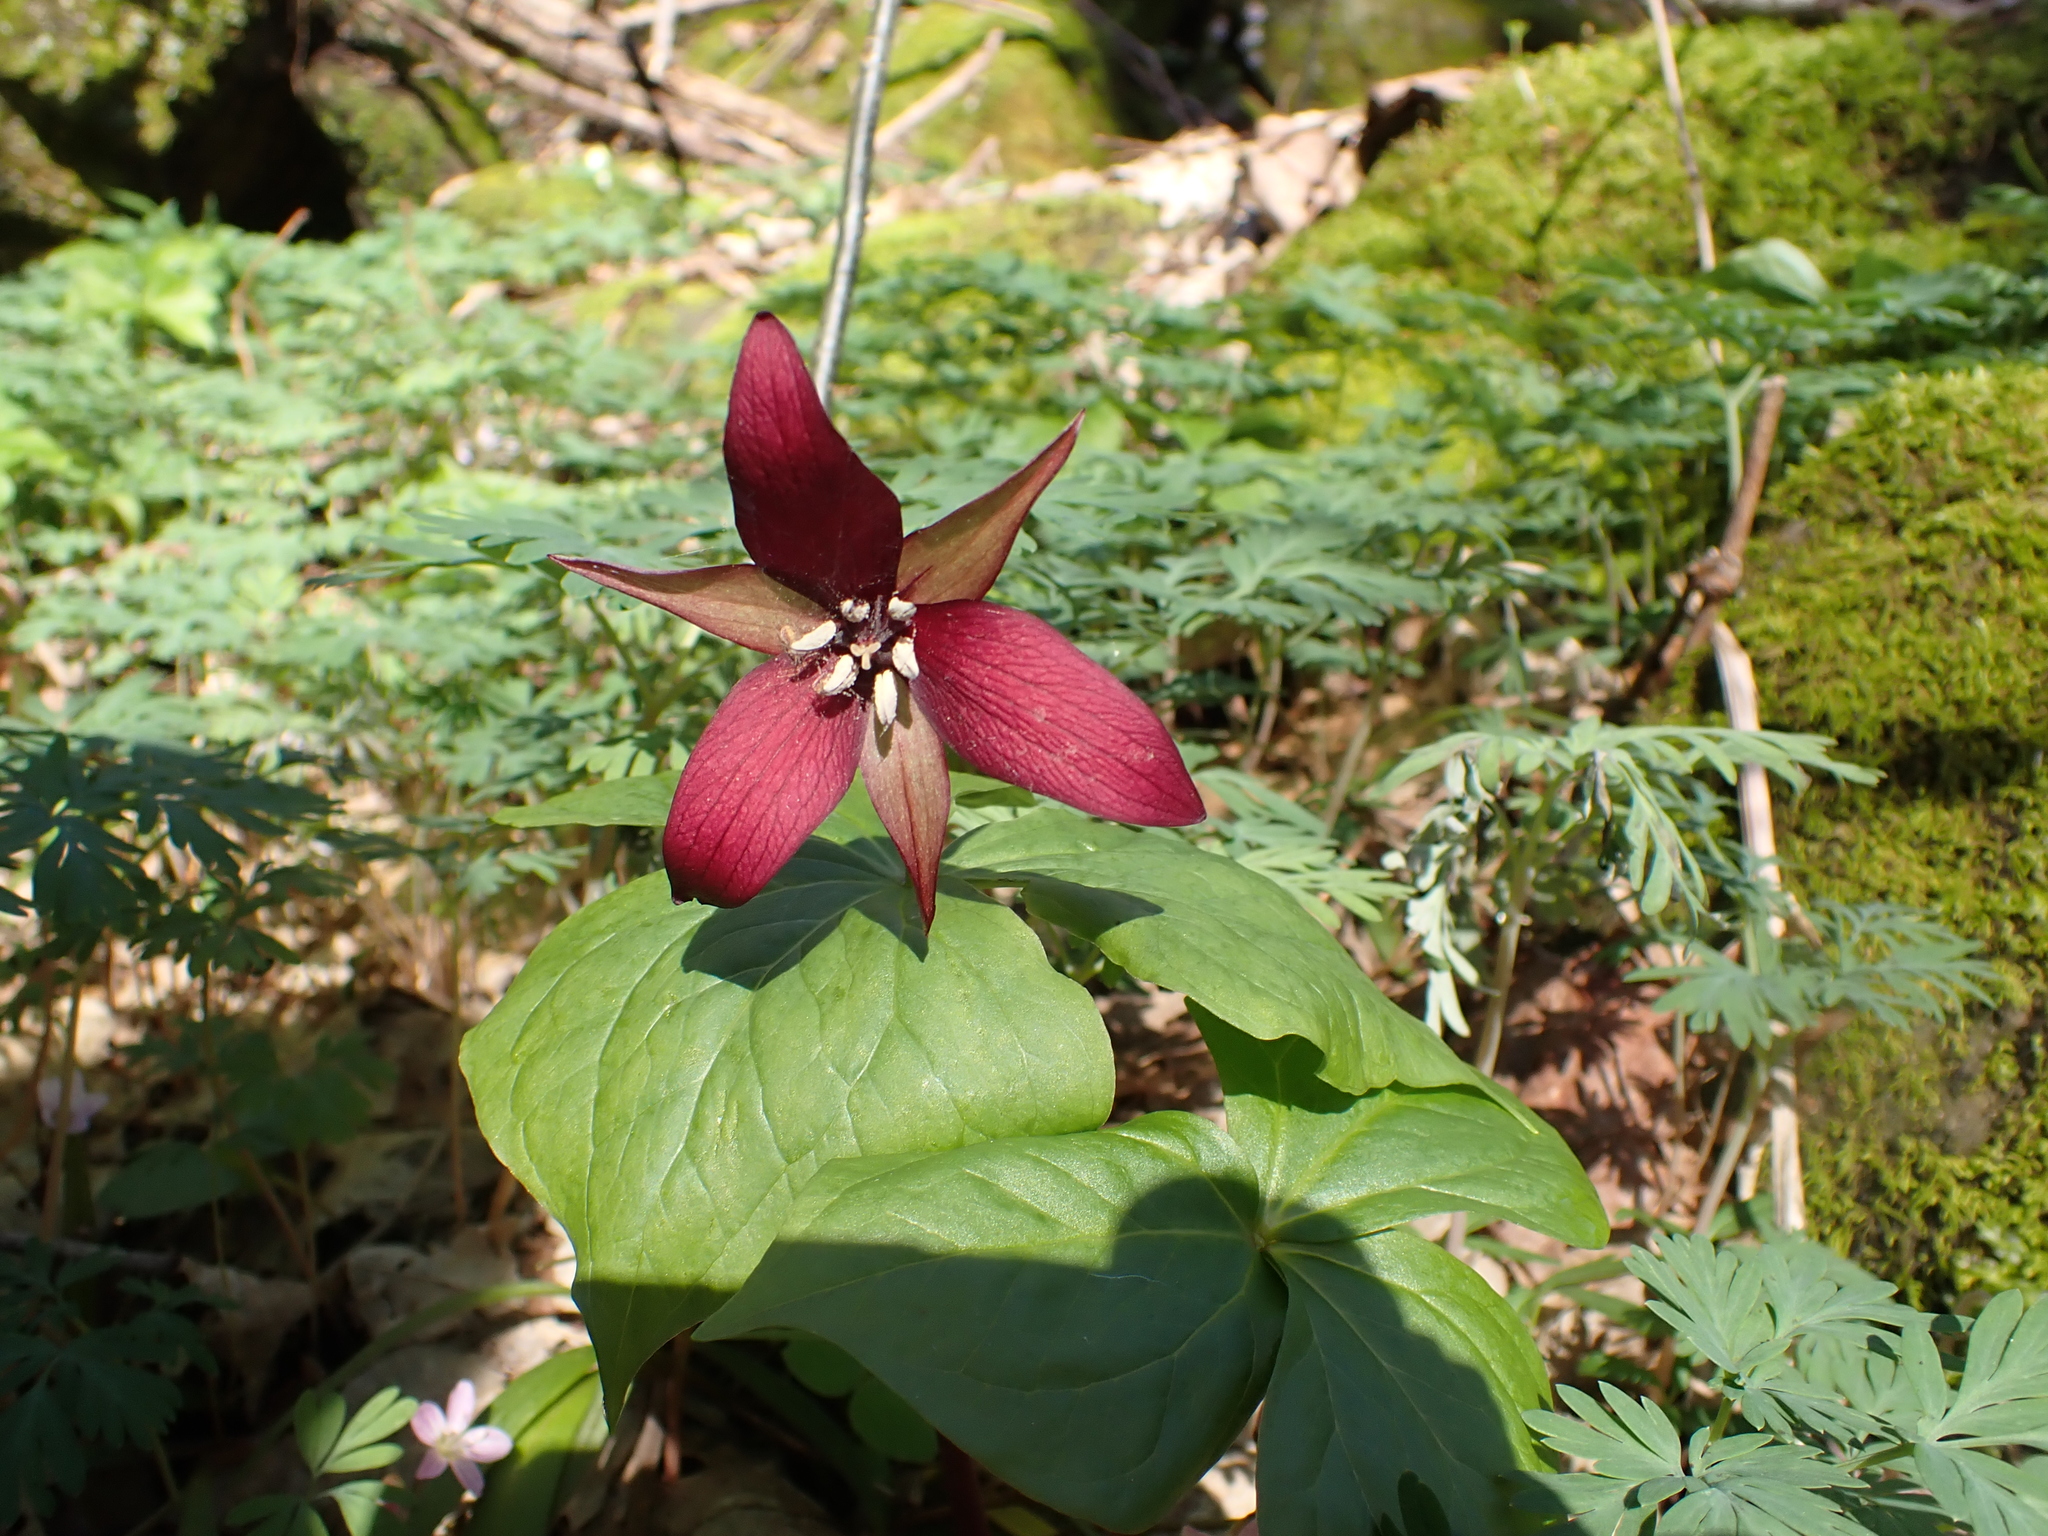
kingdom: Plantae
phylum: Tracheophyta
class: Liliopsida
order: Liliales
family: Melanthiaceae
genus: Trillium
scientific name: Trillium erectum
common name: Purple trillium
